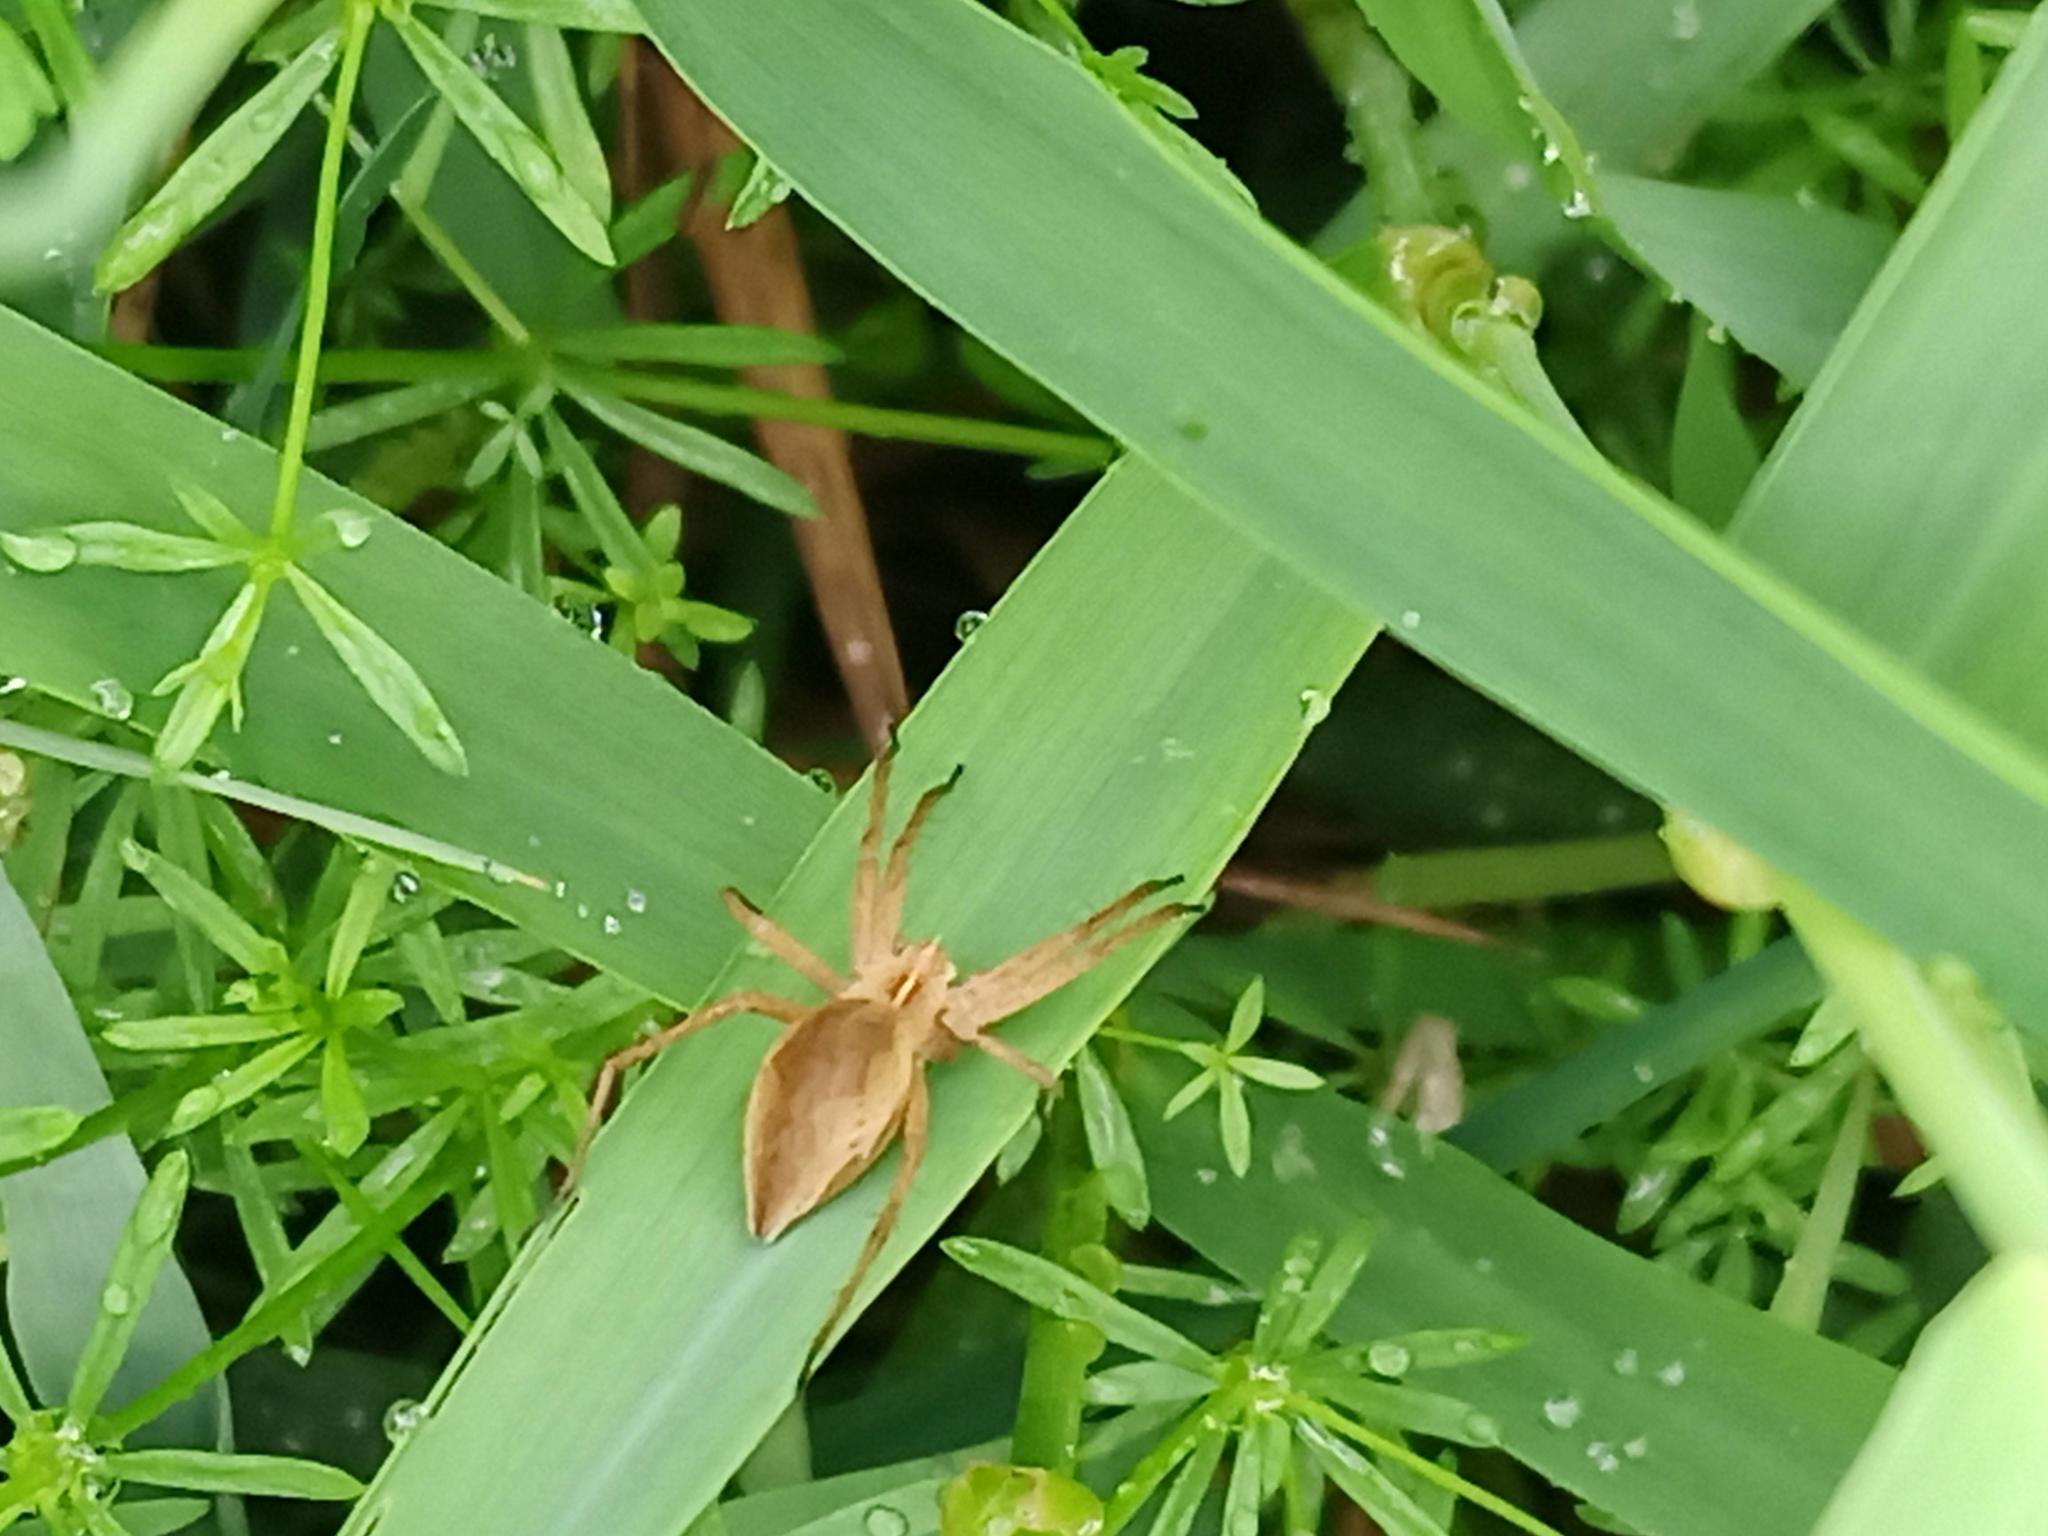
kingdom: Animalia
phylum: Arthropoda
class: Arachnida
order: Araneae
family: Pisauridae
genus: Pisaura
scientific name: Pisaura mirabilis
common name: Tent spider
